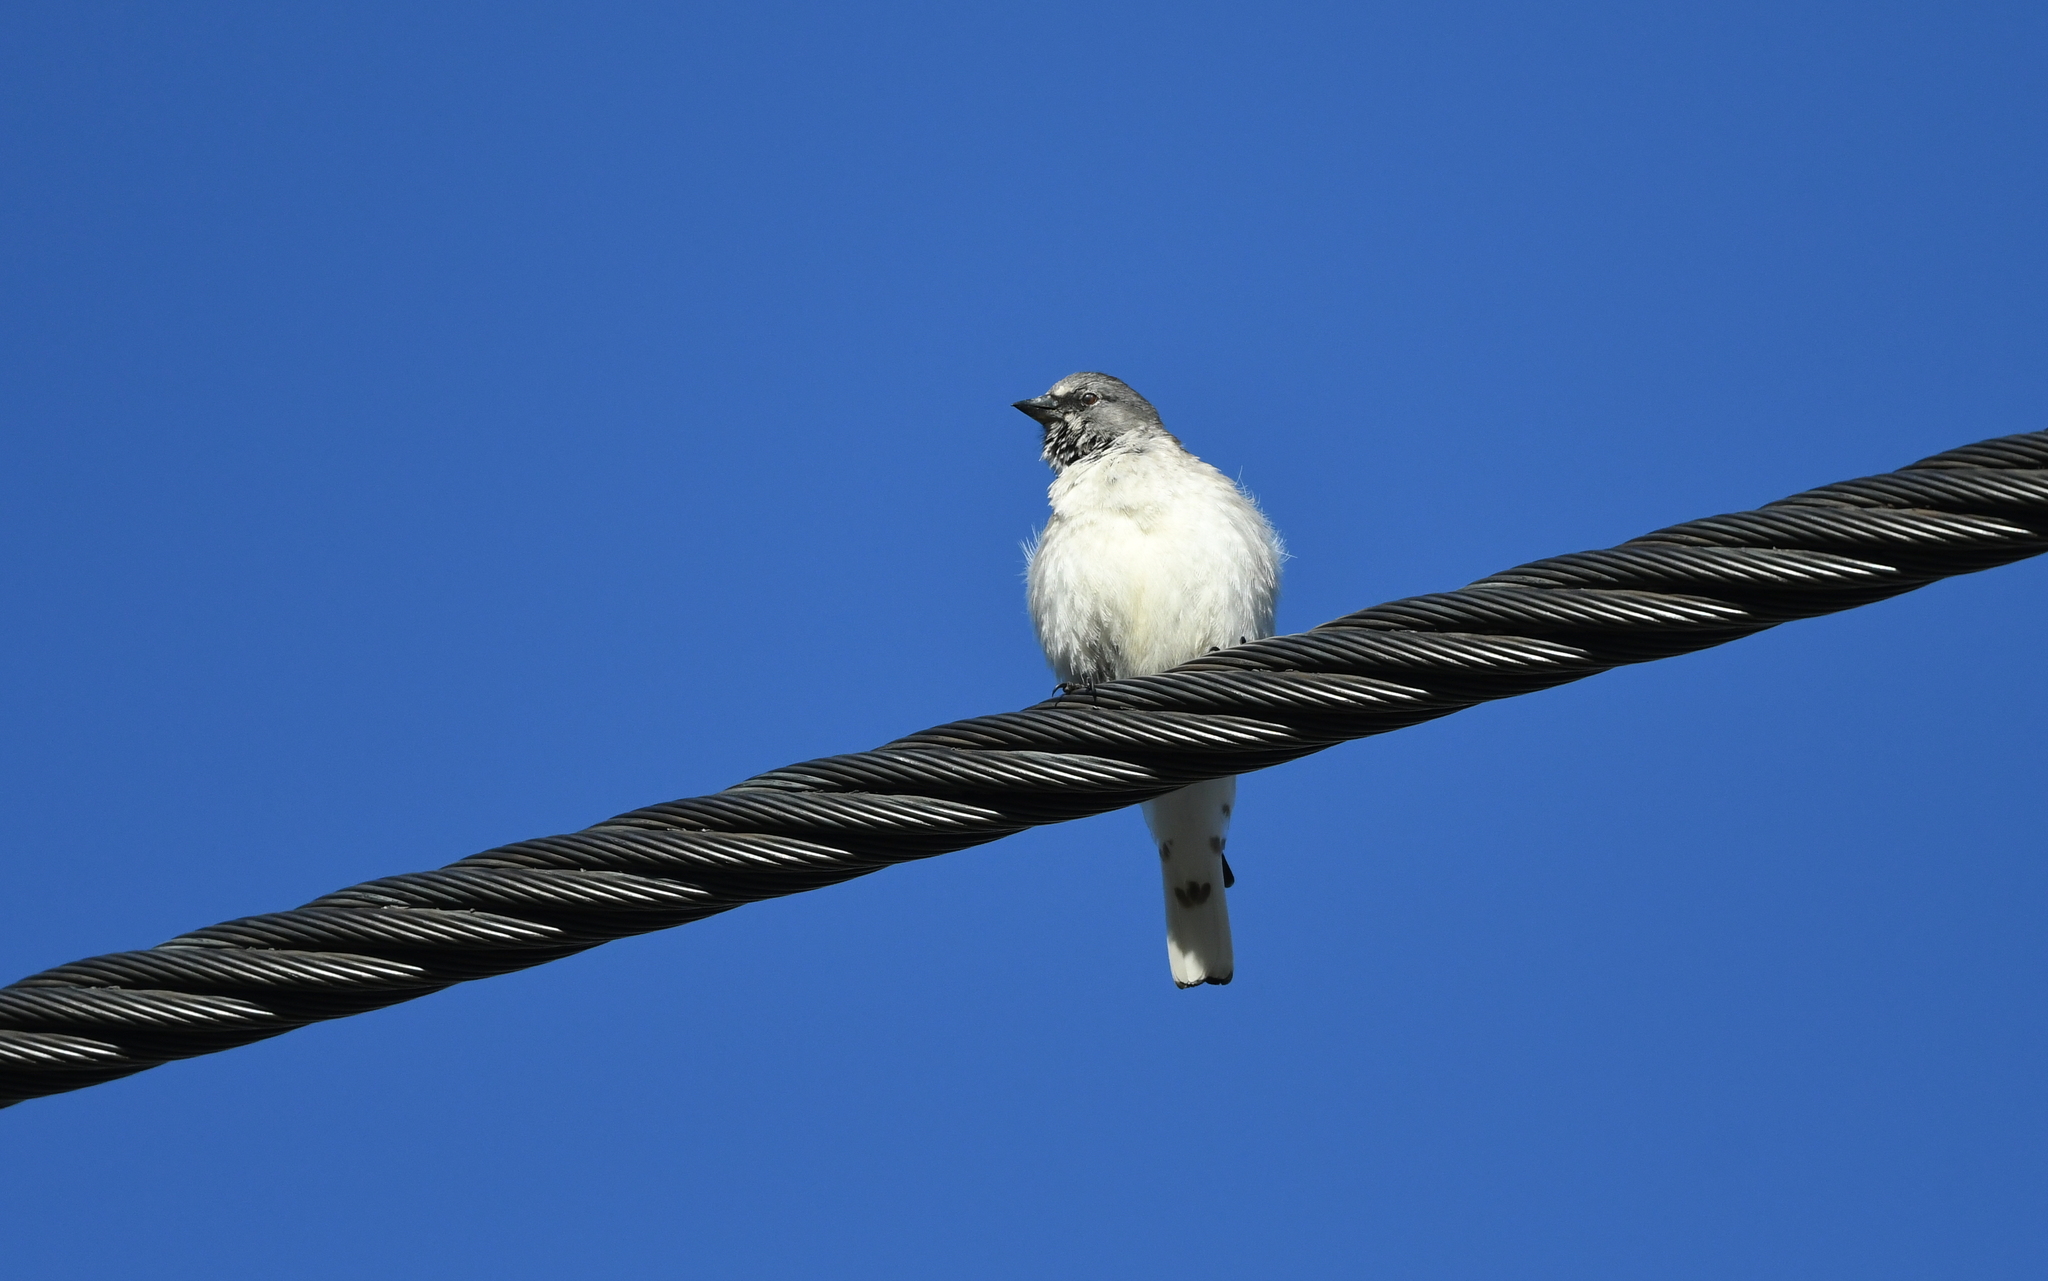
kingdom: Animalia
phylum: Chordata
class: Aves
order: Passeriformes
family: Passeridae
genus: Montifringilla
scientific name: Montifringilla nivalis
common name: White-winged snowfinch
